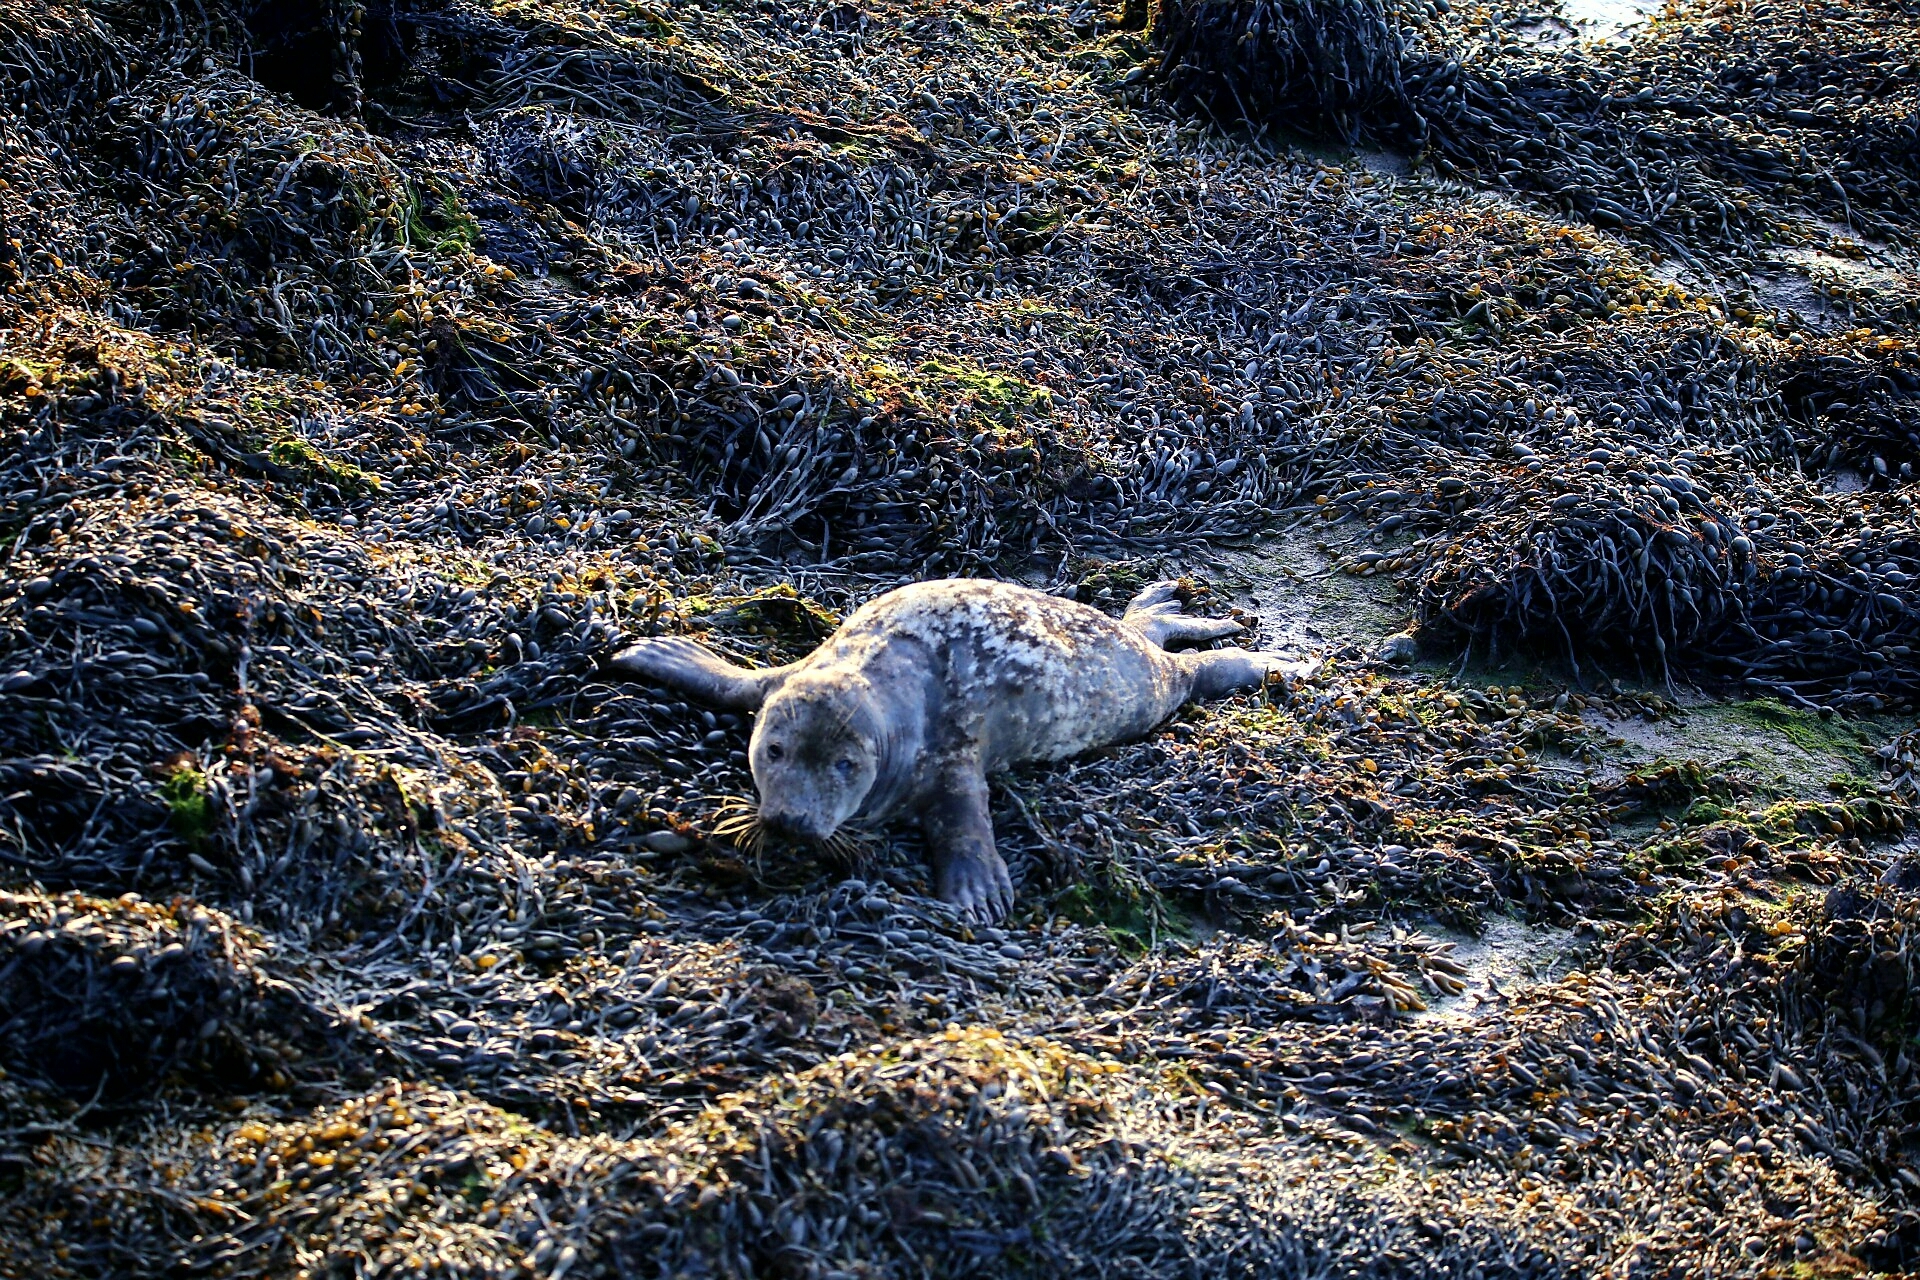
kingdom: Animalia
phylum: Chordata
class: Mammalia
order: Carnivora
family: Phocidae
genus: Halichoerus
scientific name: Halichoerus grypus
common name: Grey seal
